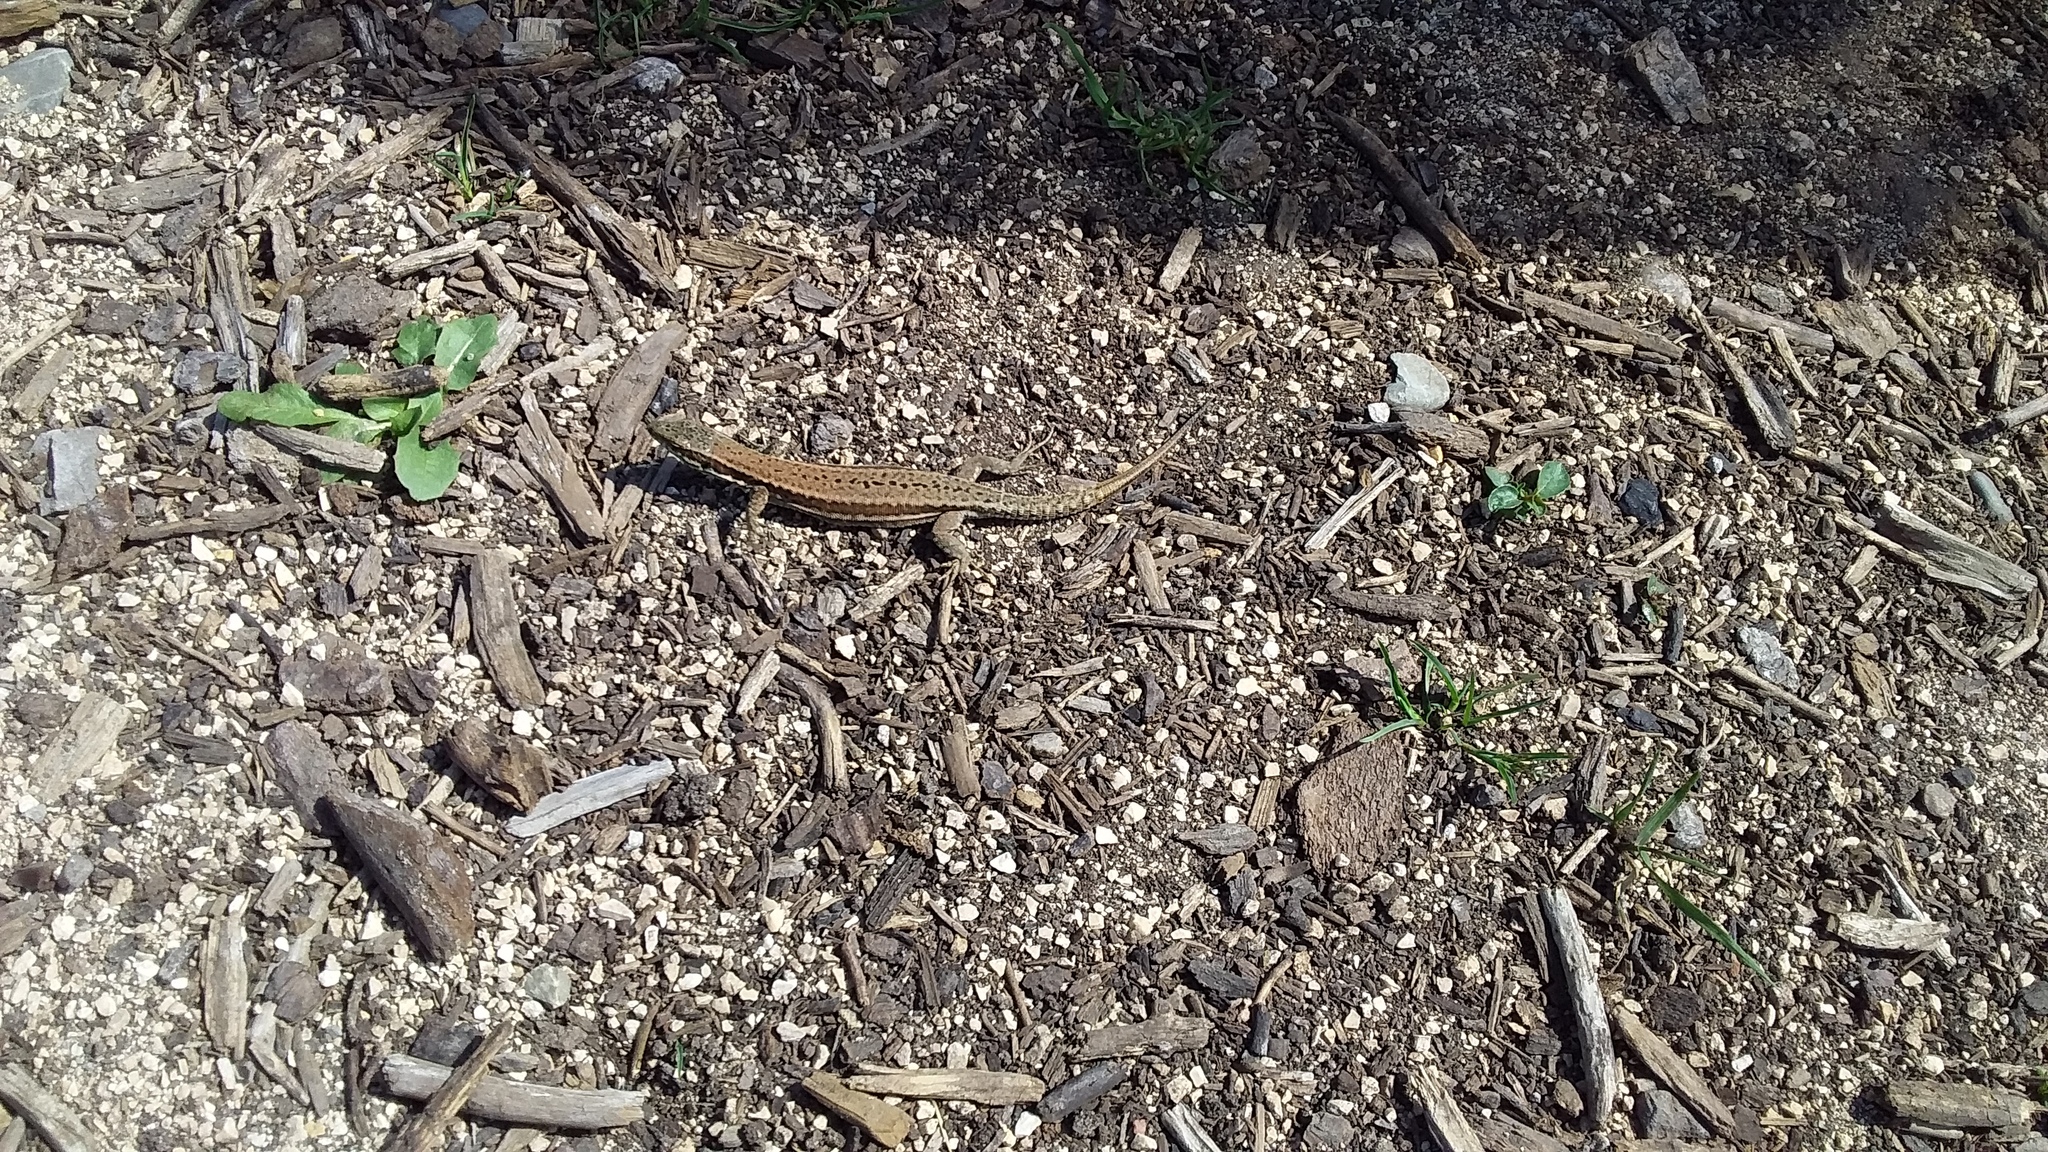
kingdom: Animalia
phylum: Chordata
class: Squamata
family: Lacertidae
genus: Podarcis
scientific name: Podarcis muralis
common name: Common wall lizard
